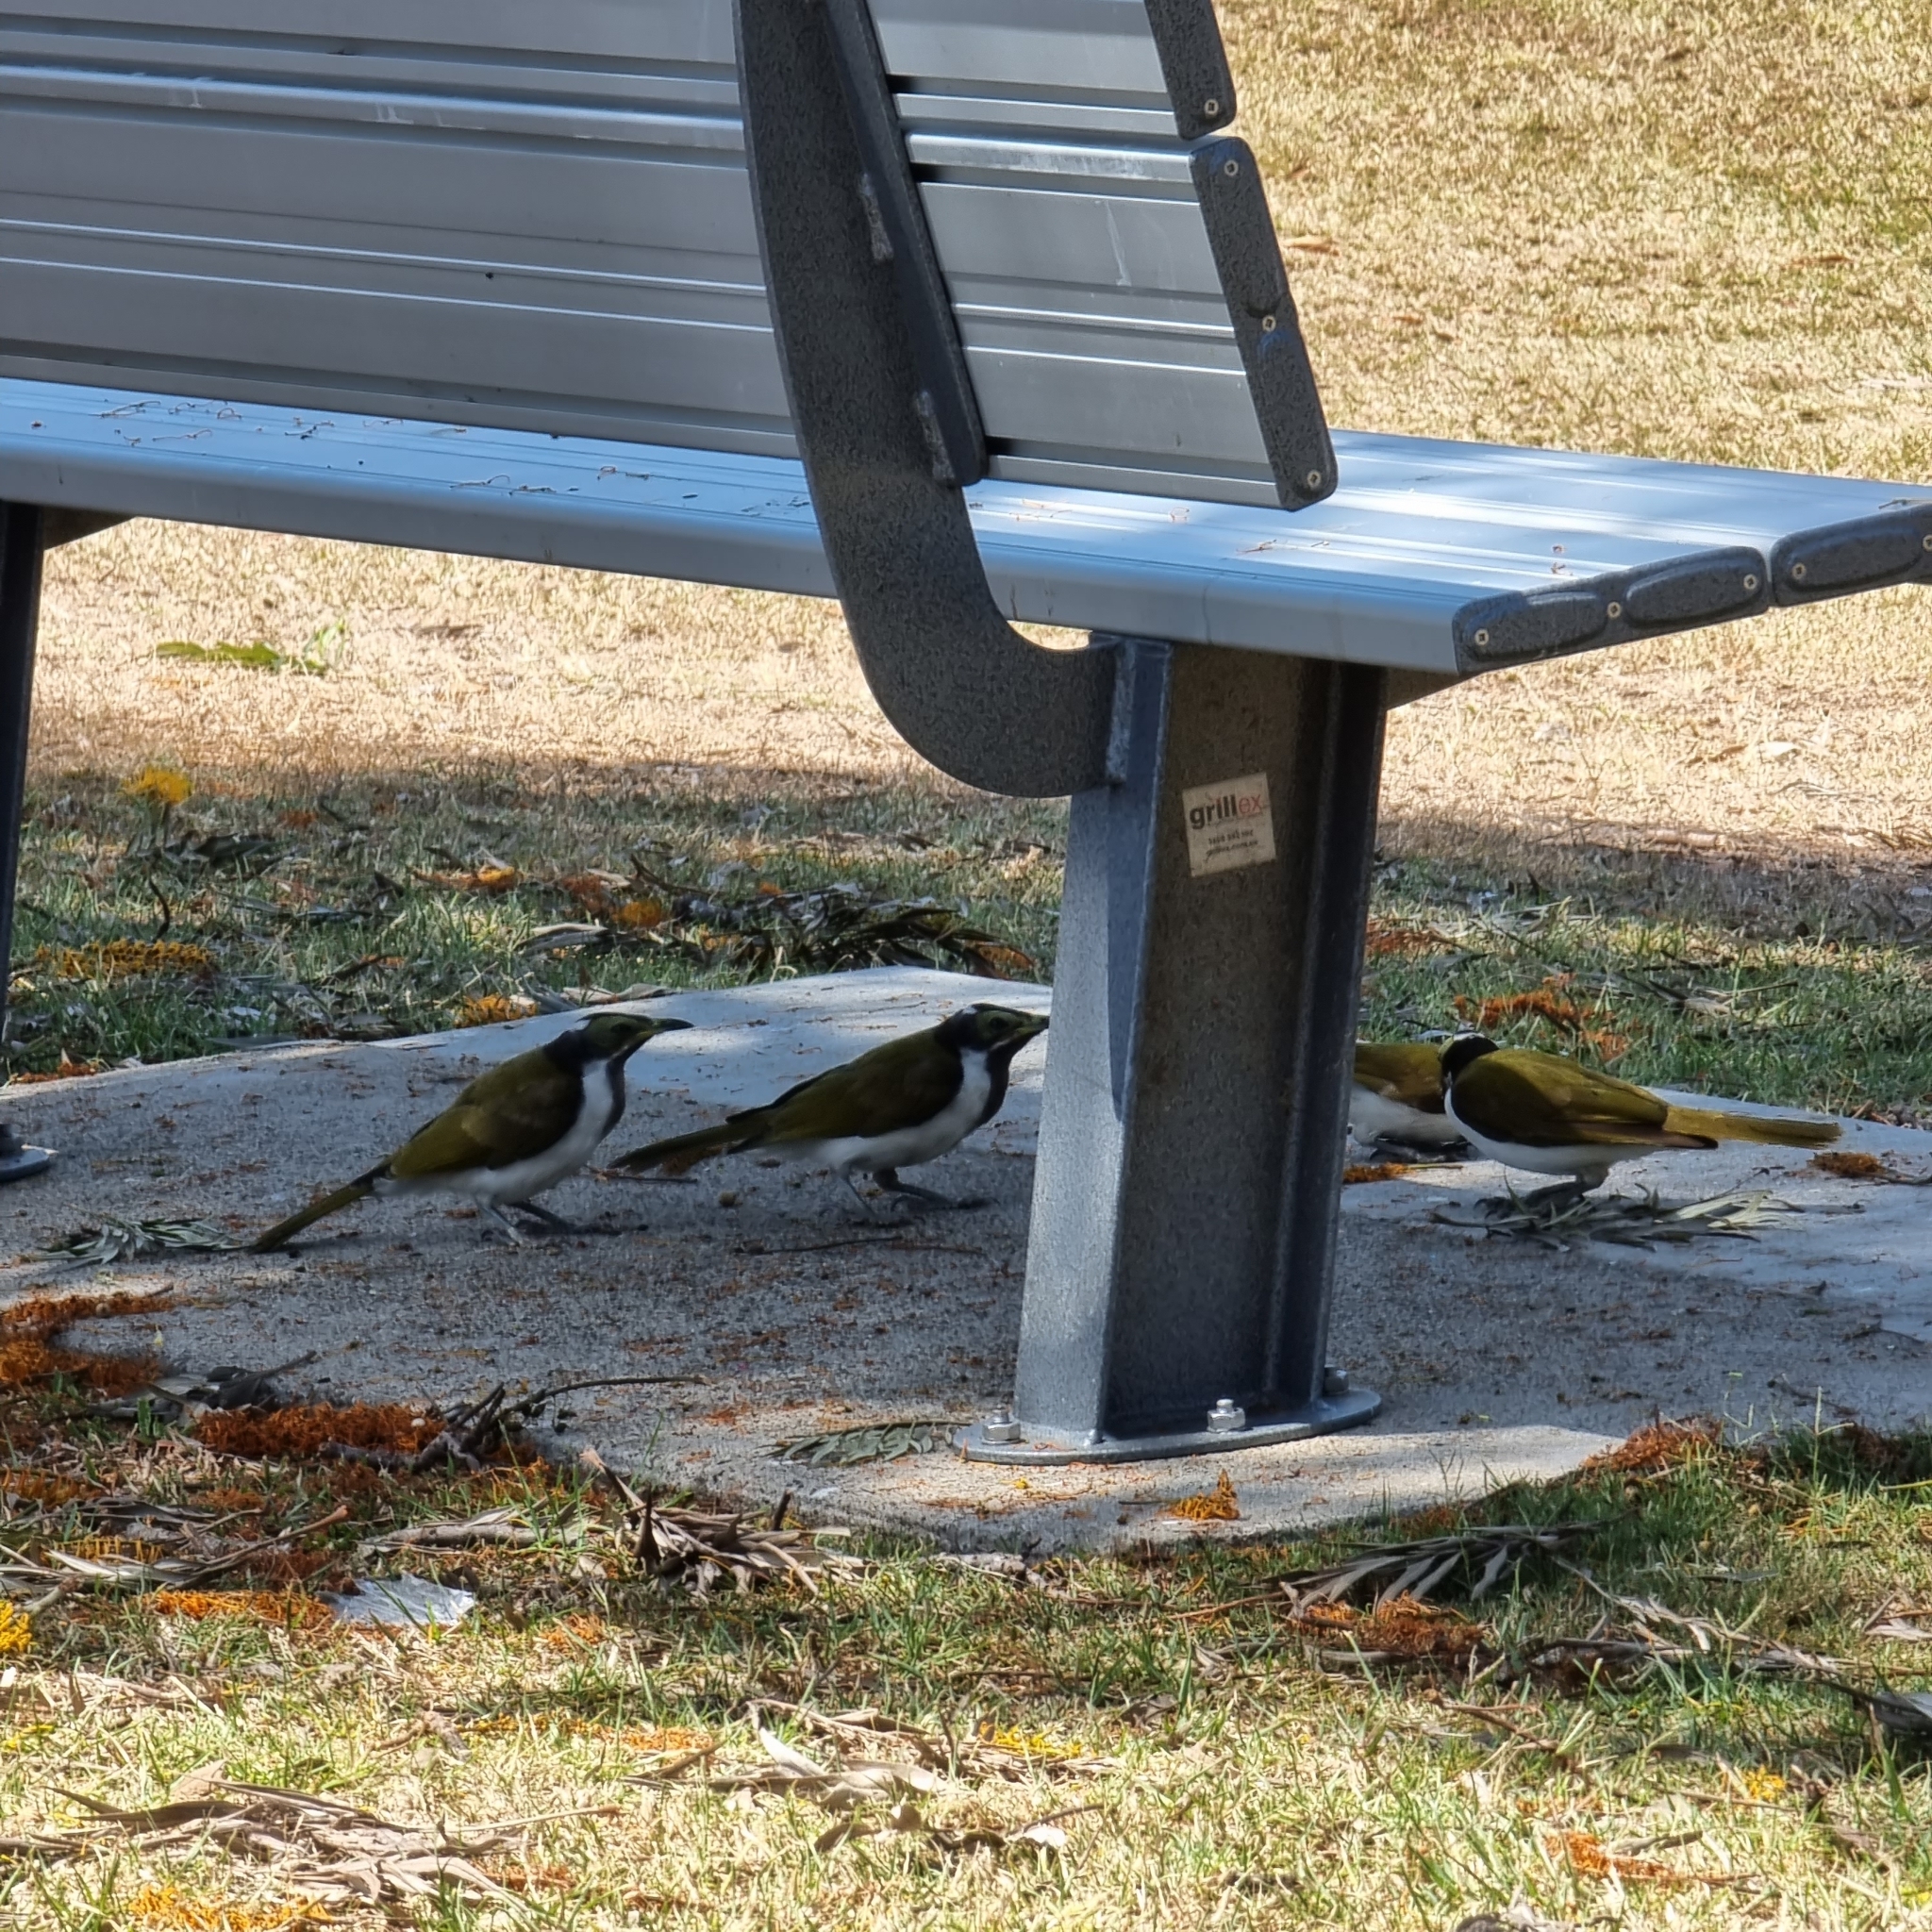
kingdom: Animalia
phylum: Chordata
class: Aves
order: Passeriformes
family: Meliphagidae
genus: Entomyzon
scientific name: Entomyzon cyanotis
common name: Blue-faced honeyeater
